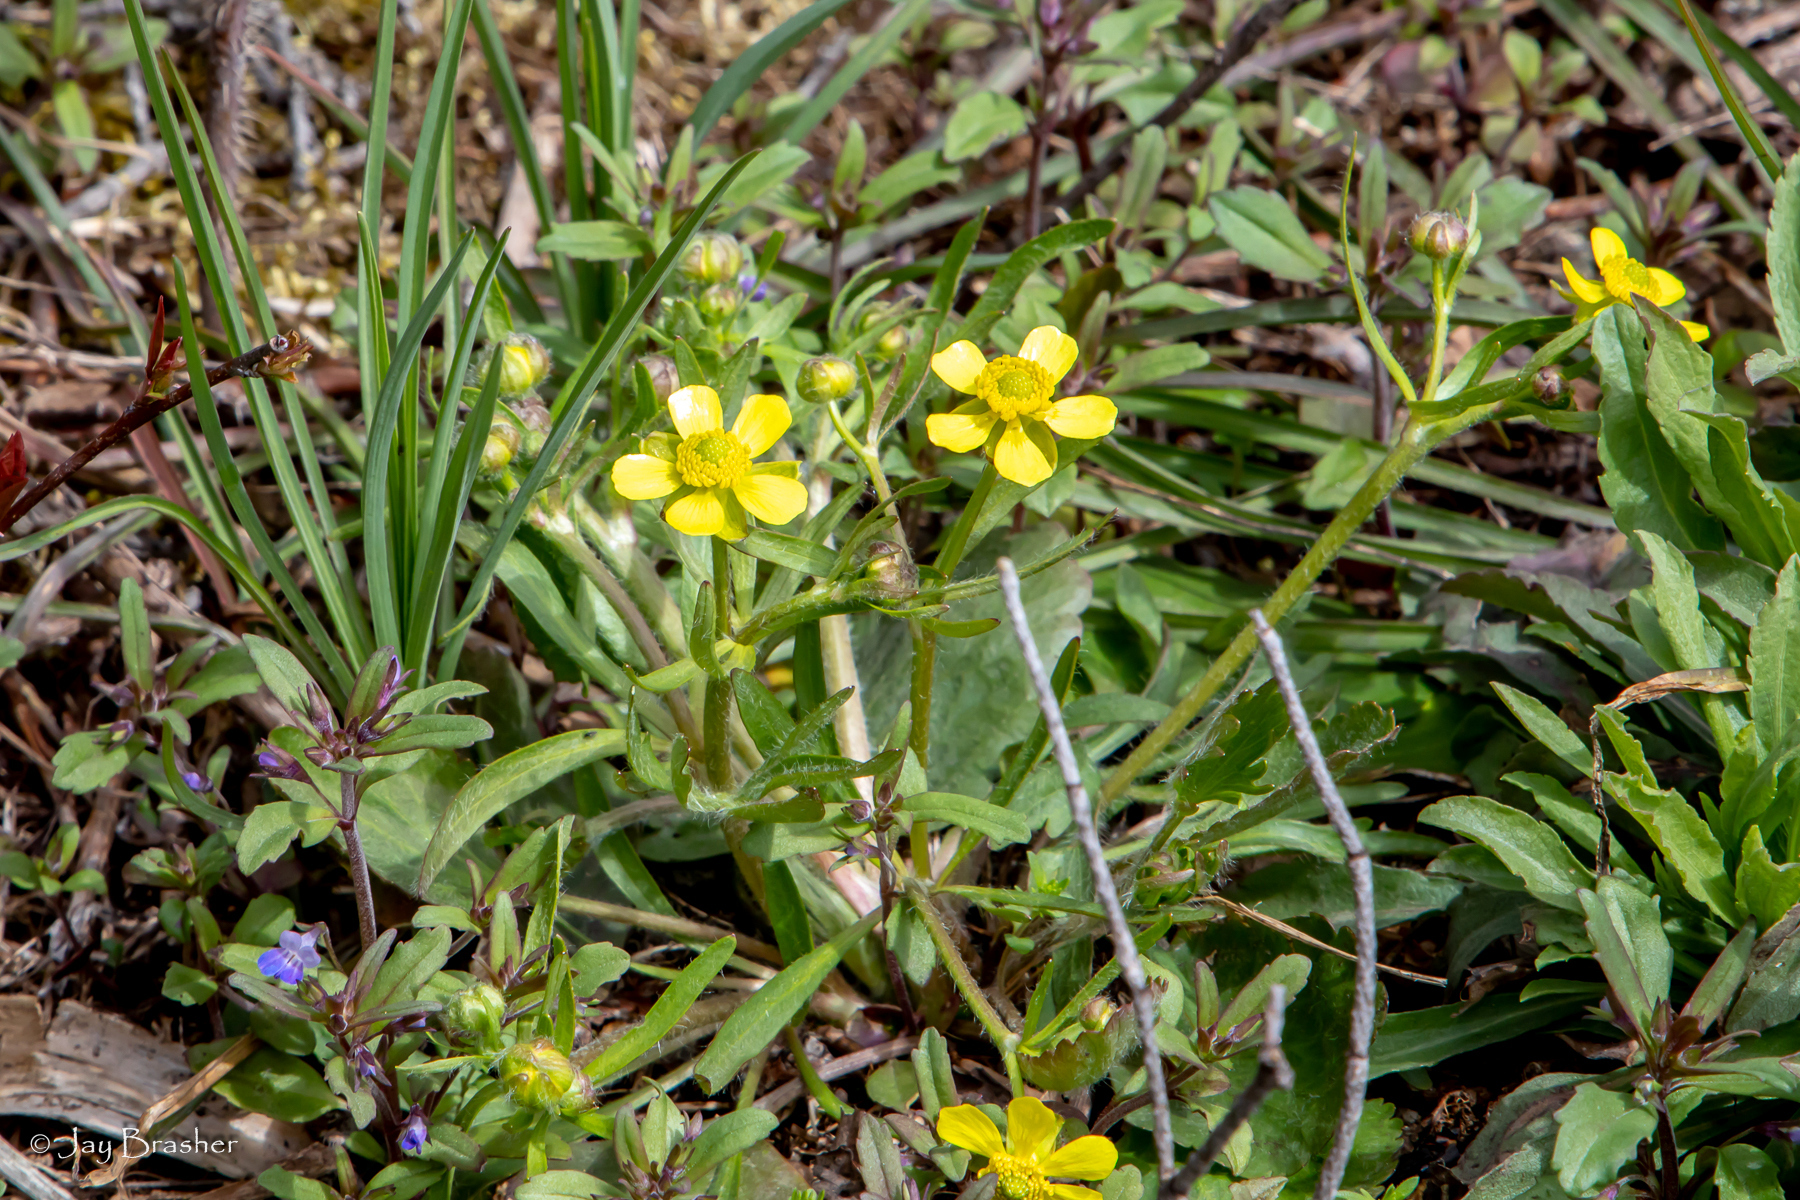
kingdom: Plantae
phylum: Tracheophyta
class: Magnoliopsida
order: Ranunculales
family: Ranunculaceae
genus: Ranunculus
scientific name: Ranunculus rhomboideus
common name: Prairie buttercup
